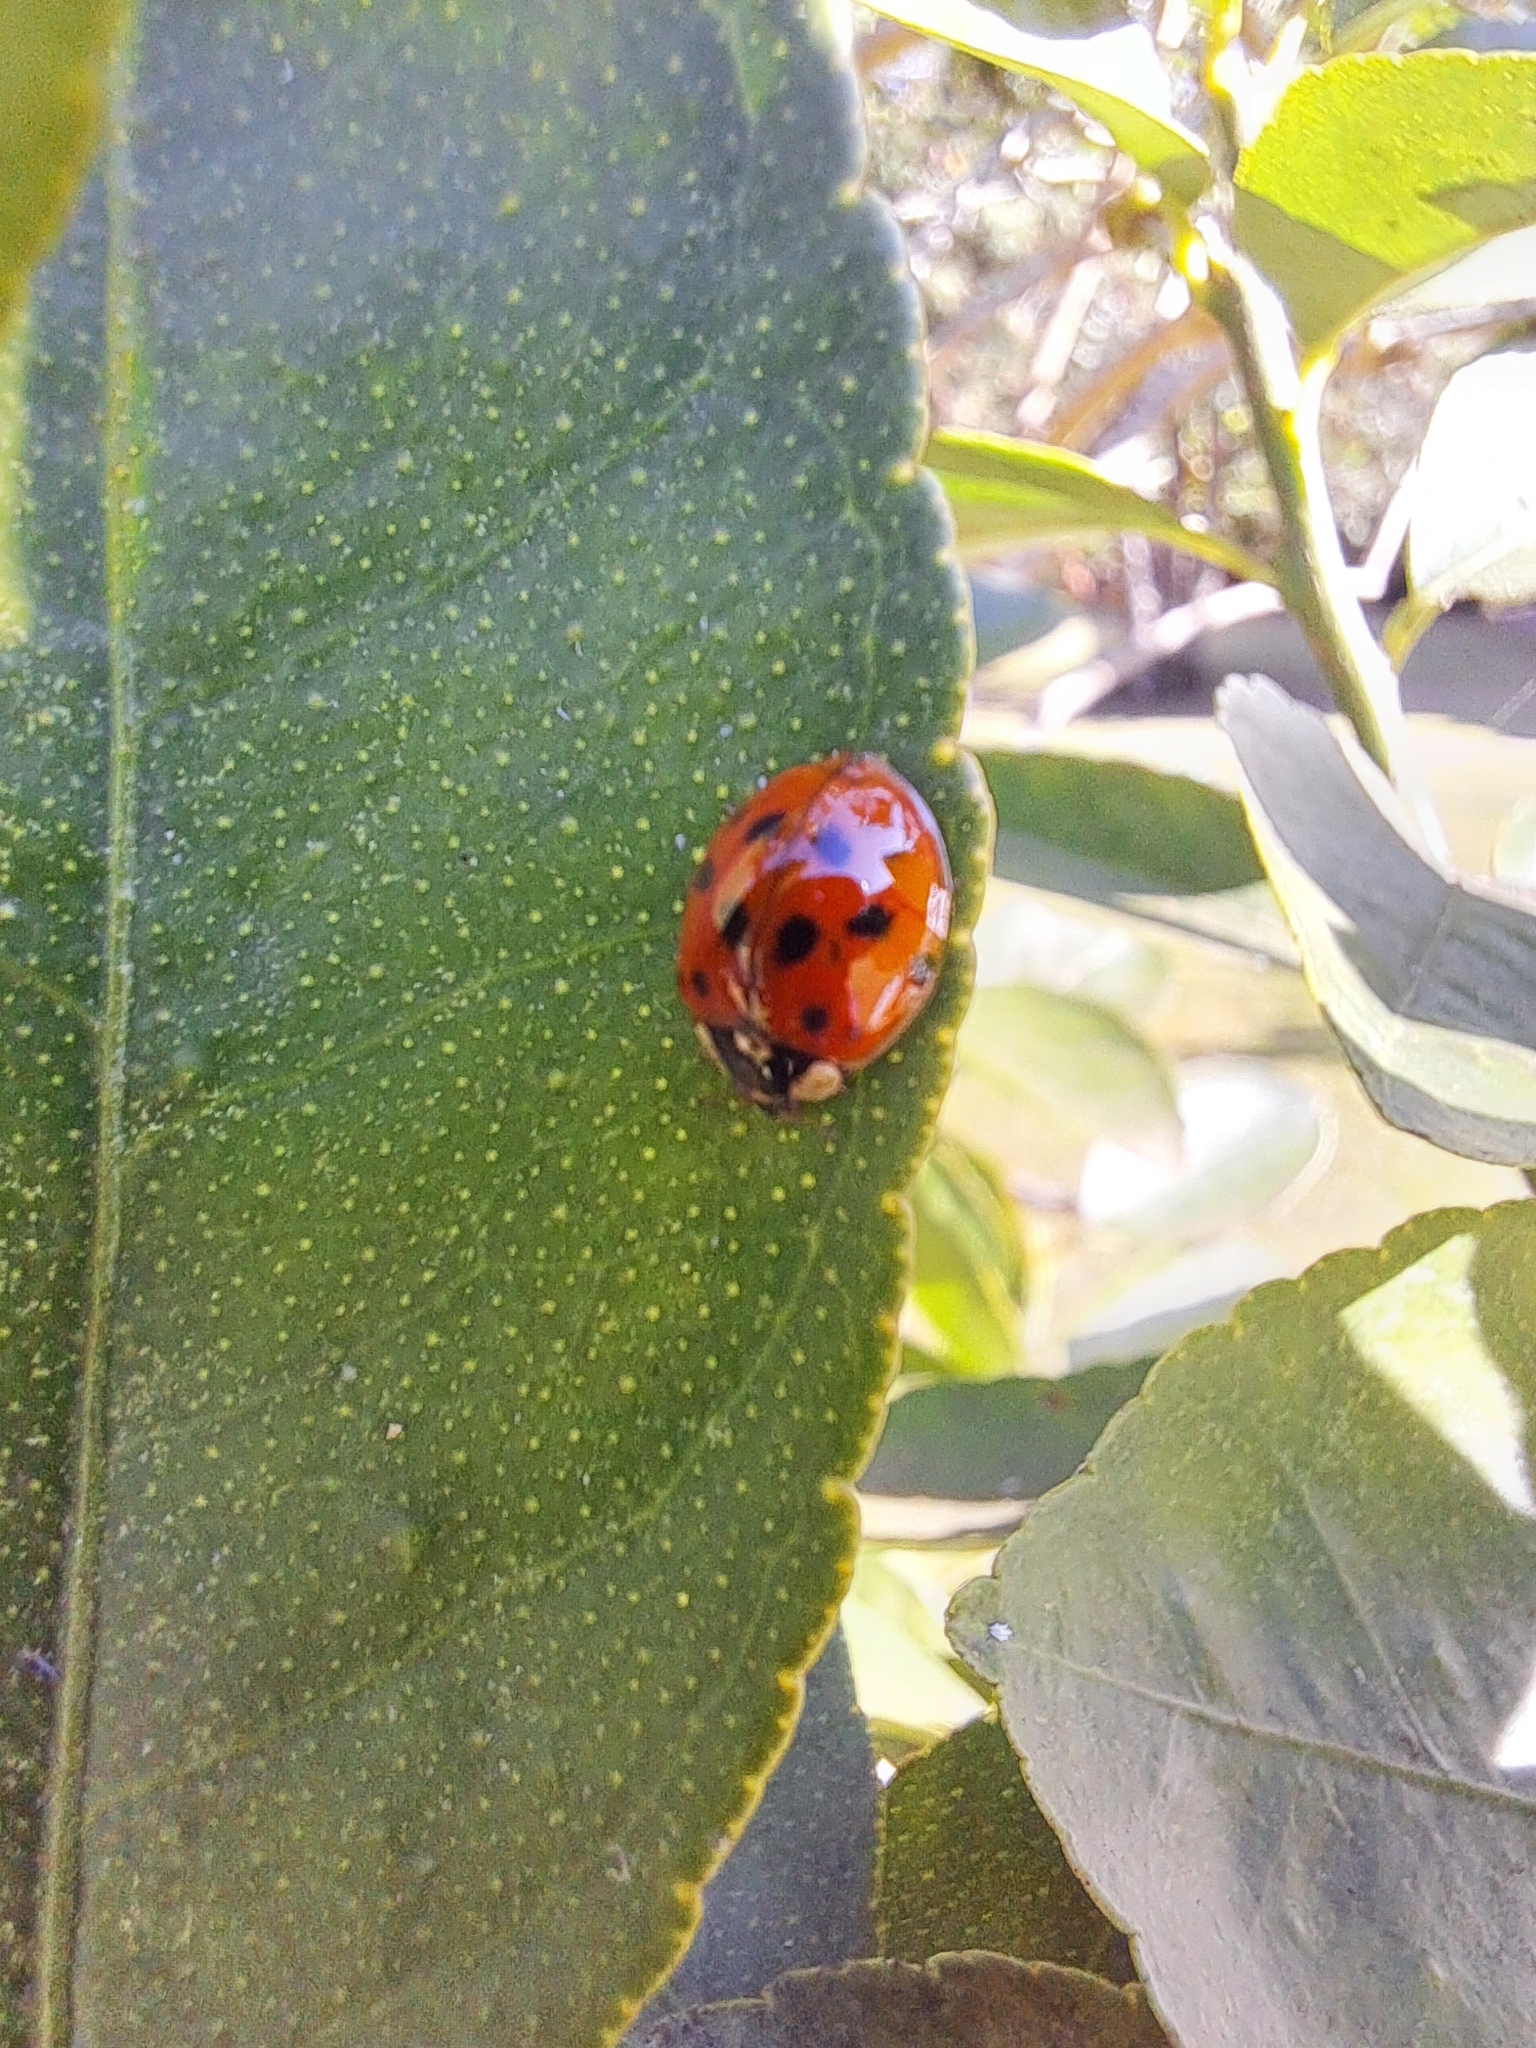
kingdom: Animalia
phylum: Arthropoda
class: Insecta
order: Coleoptera
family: Coccinellidae
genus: Harmonia
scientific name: Harmonia axyridis
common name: Harlequin ladybird
